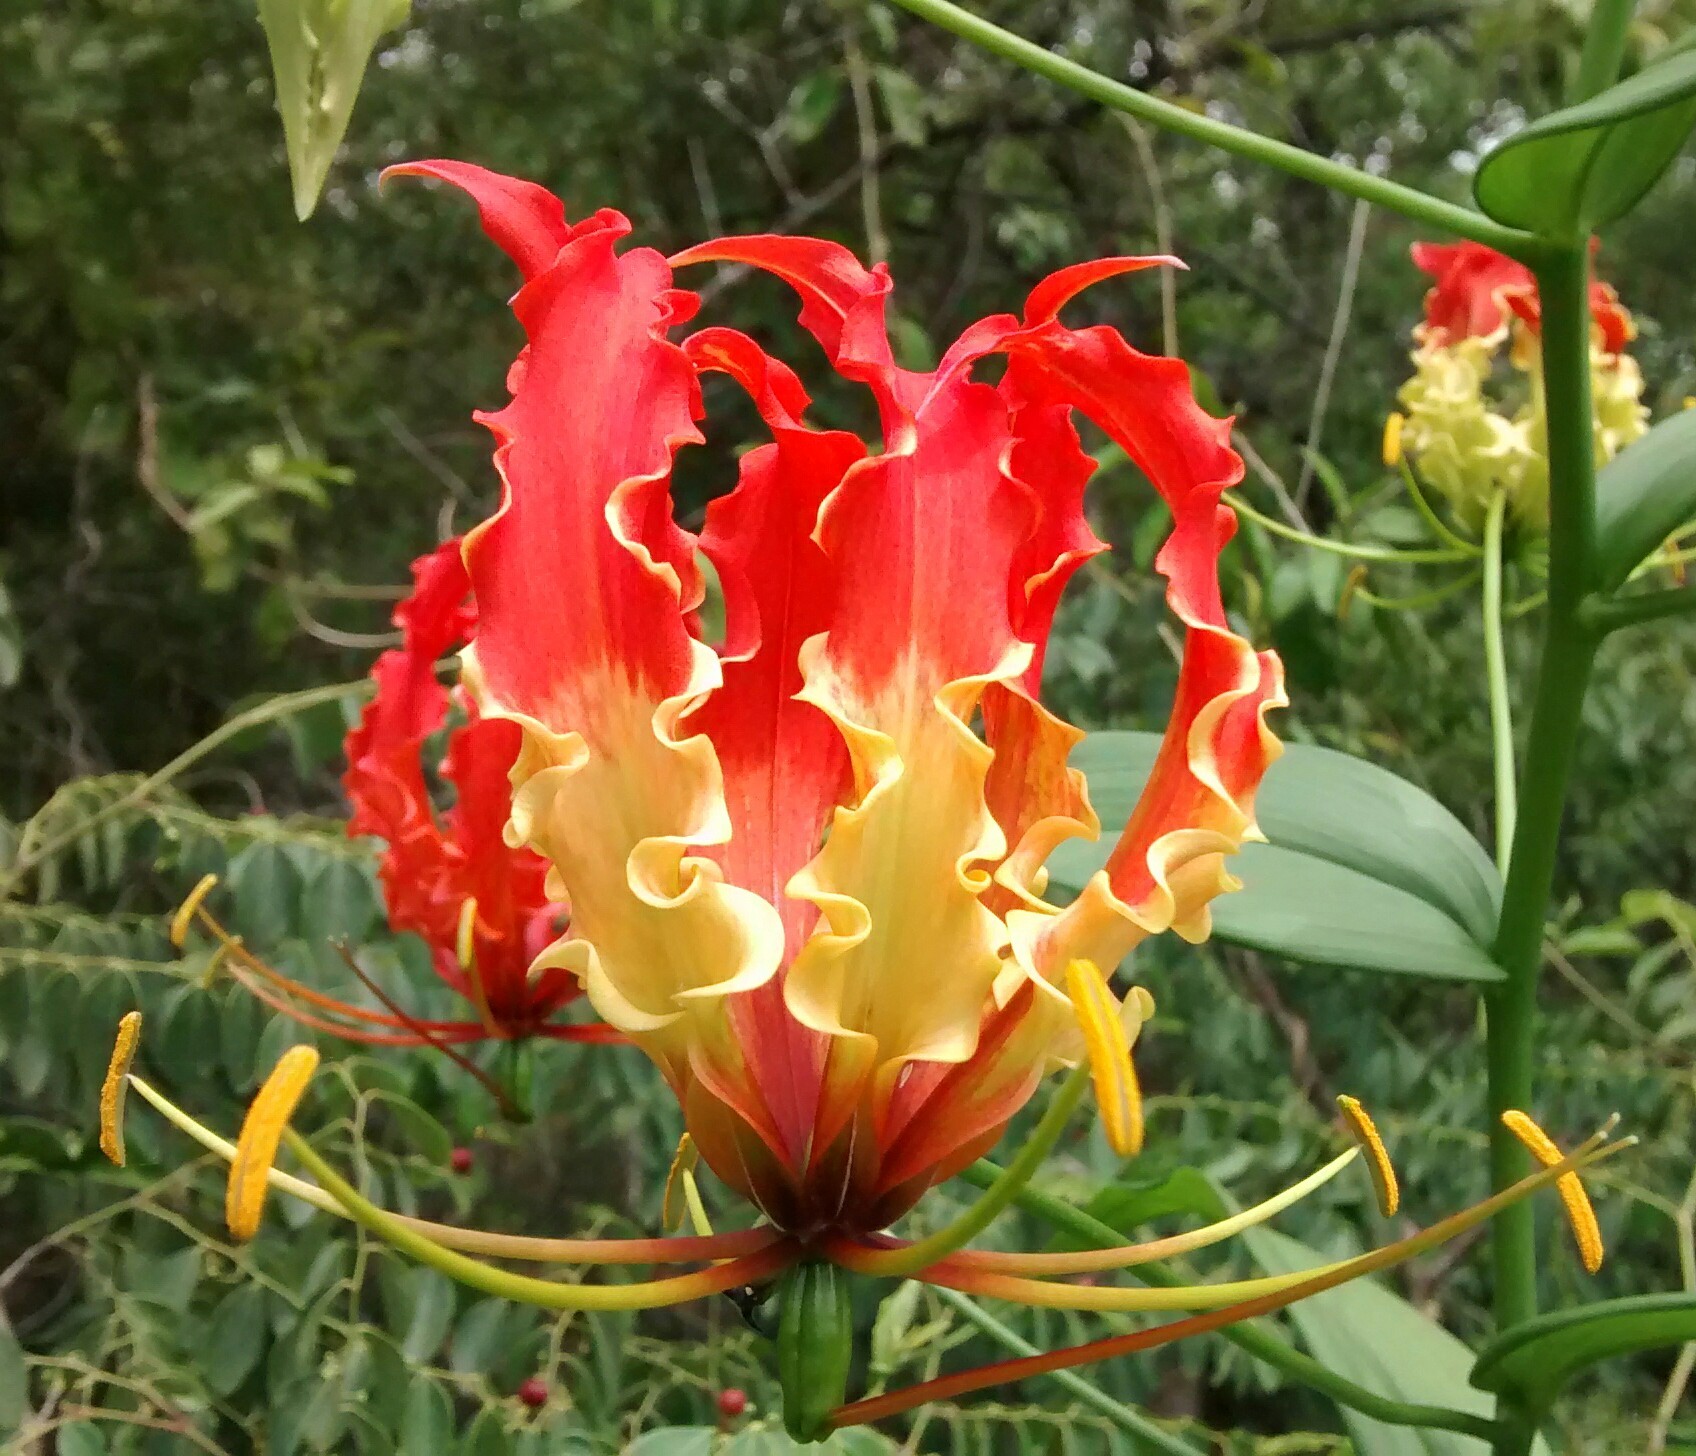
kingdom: Plantae
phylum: Tracheophyta
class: Liliopsida
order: Liliales
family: Colchicaceae
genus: Gloriosa
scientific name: Gloriosa superba
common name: Flame lily
